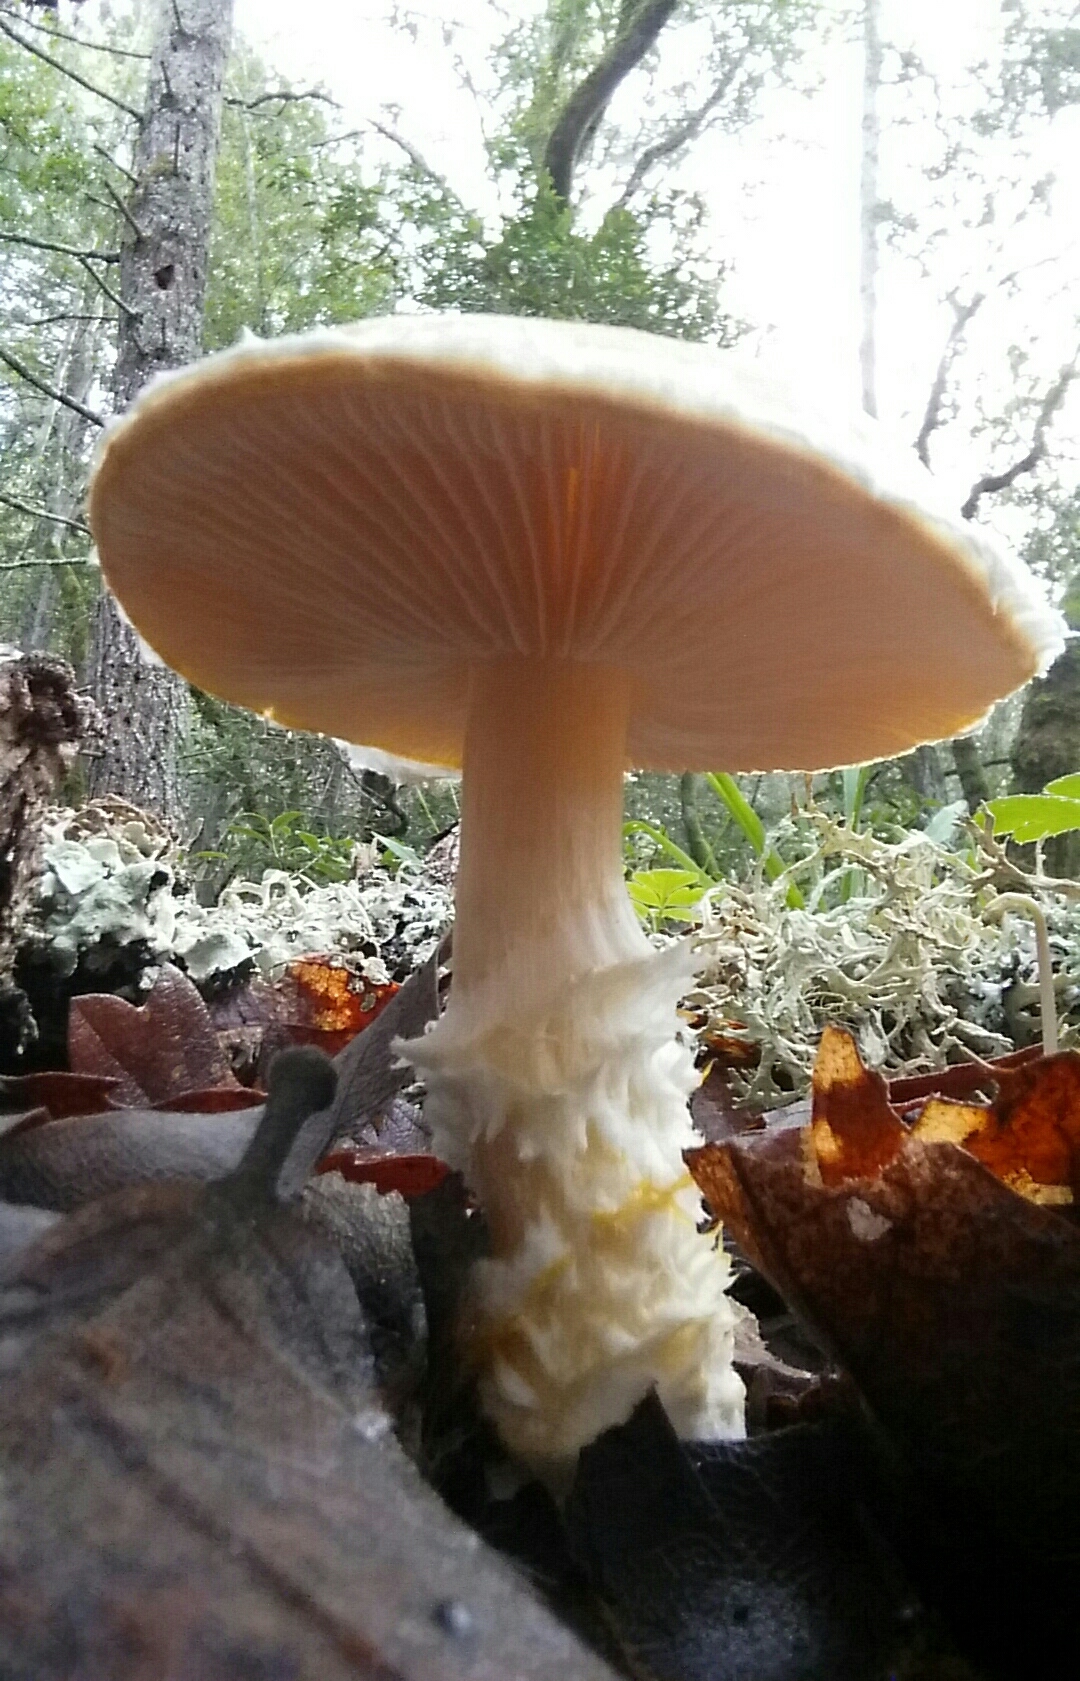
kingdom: Fungi
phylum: Basidiomycota
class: Agaricomycetes
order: Agaricales
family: Agaricaceae
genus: Floccularia
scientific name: Floccularia albolanaripes
